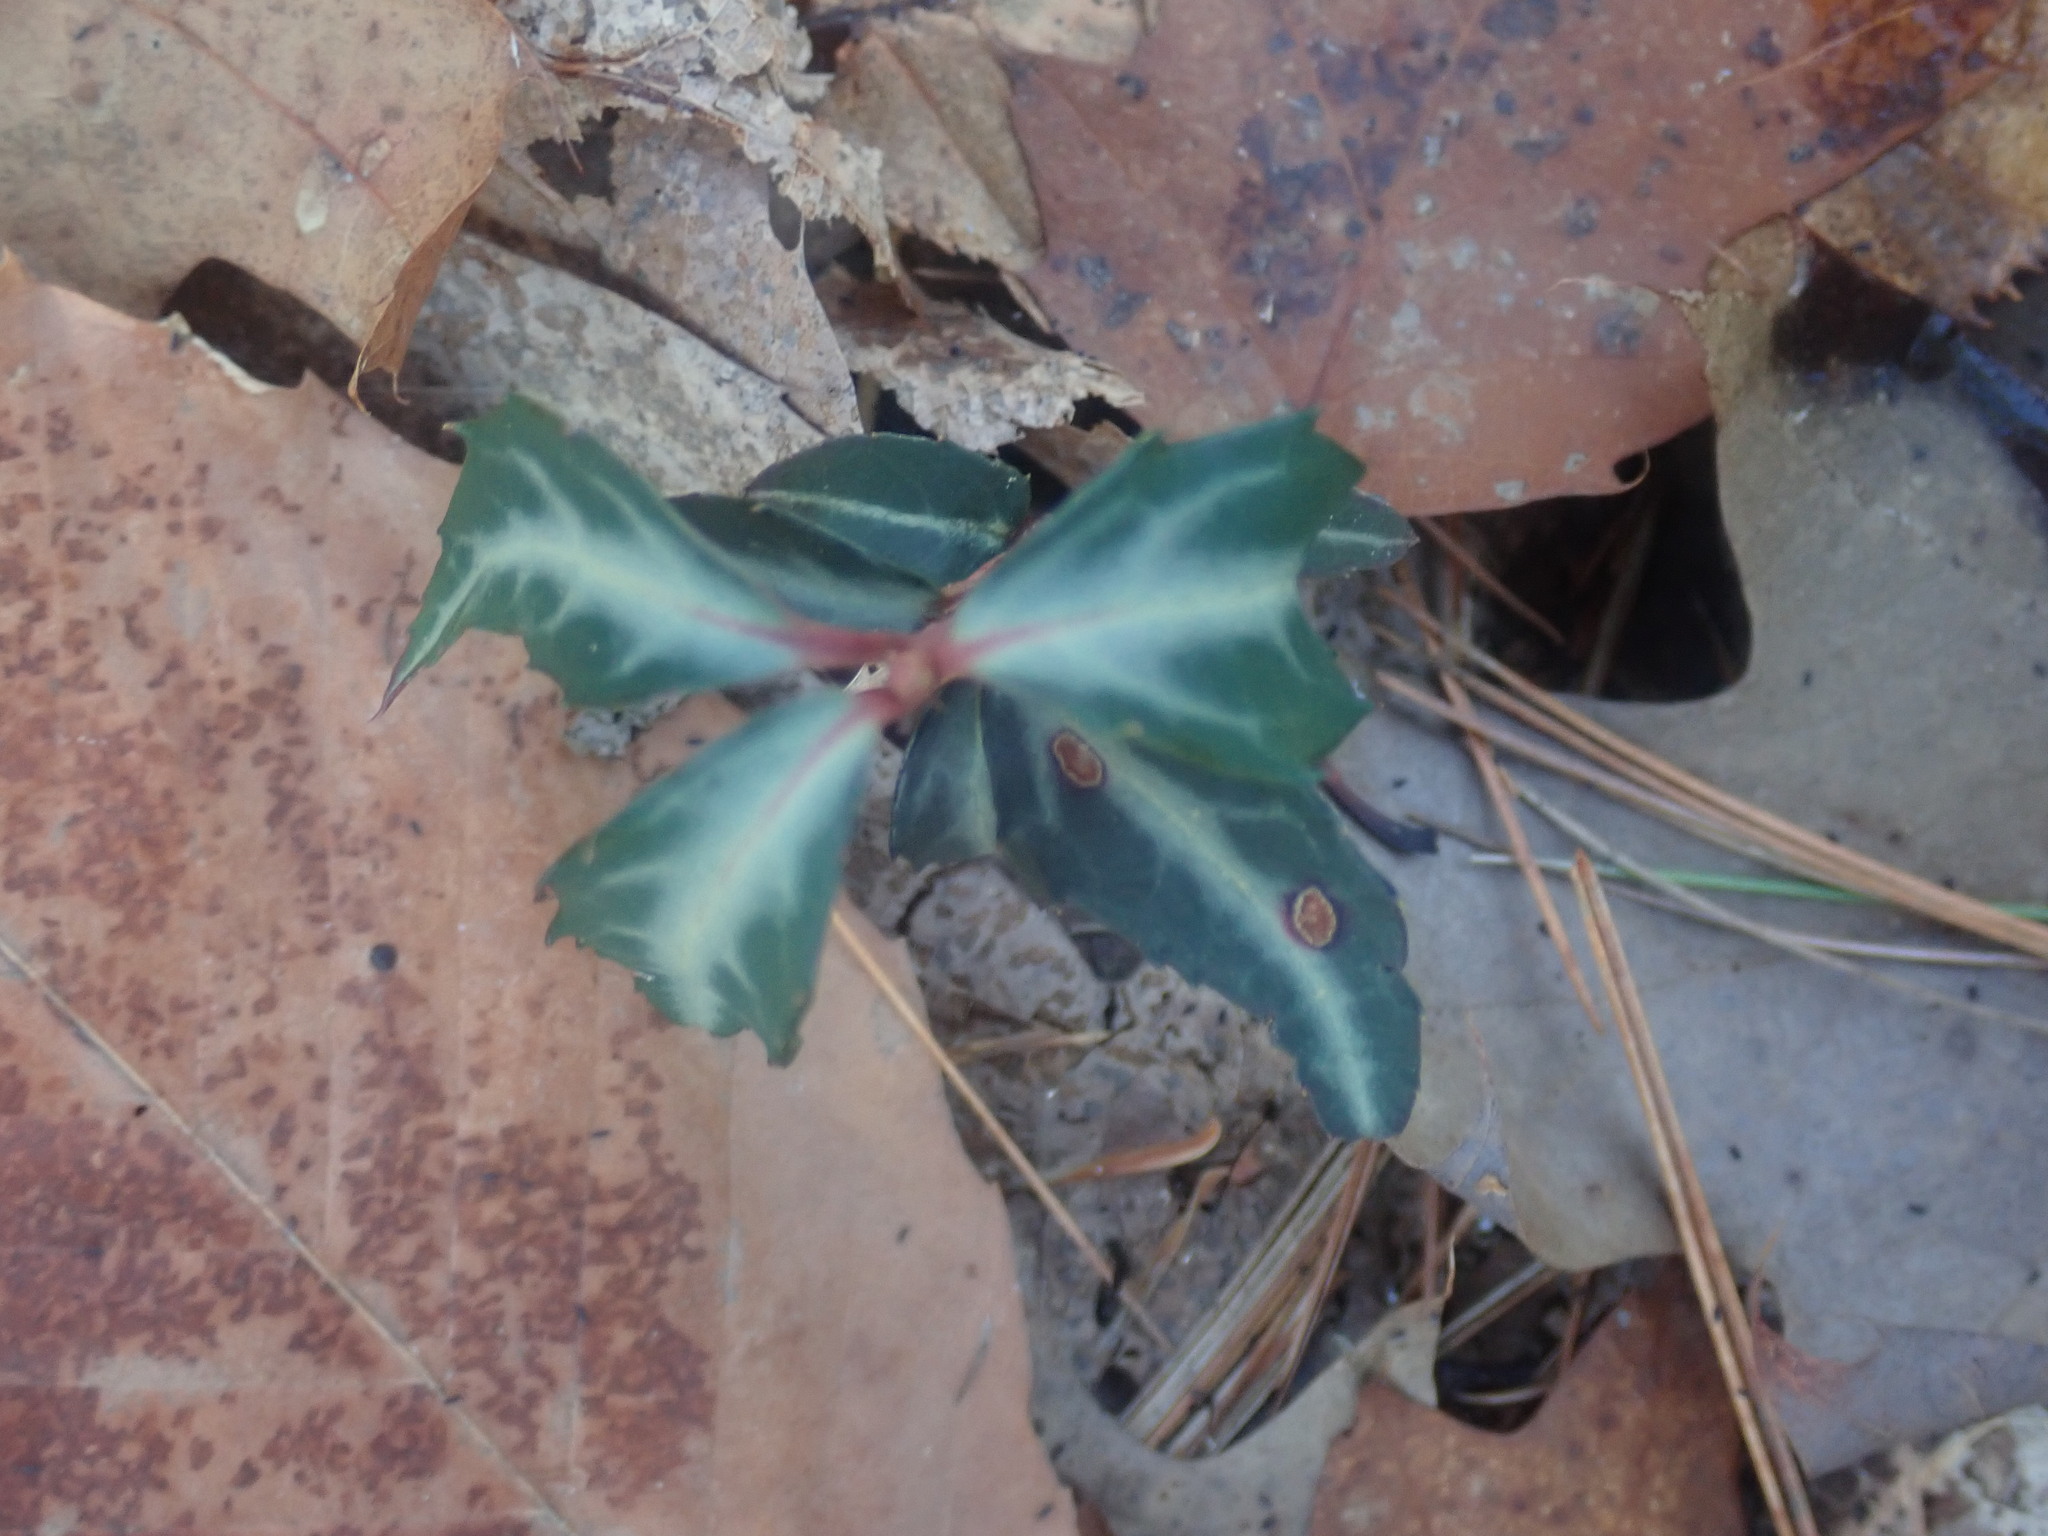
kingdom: Plantae
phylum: Tracheophyta
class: Magnoliopsida
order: Ericales
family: Ericaceae
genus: Chimaphila
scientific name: Chimaphila maculata
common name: Spotted pipsissewa
